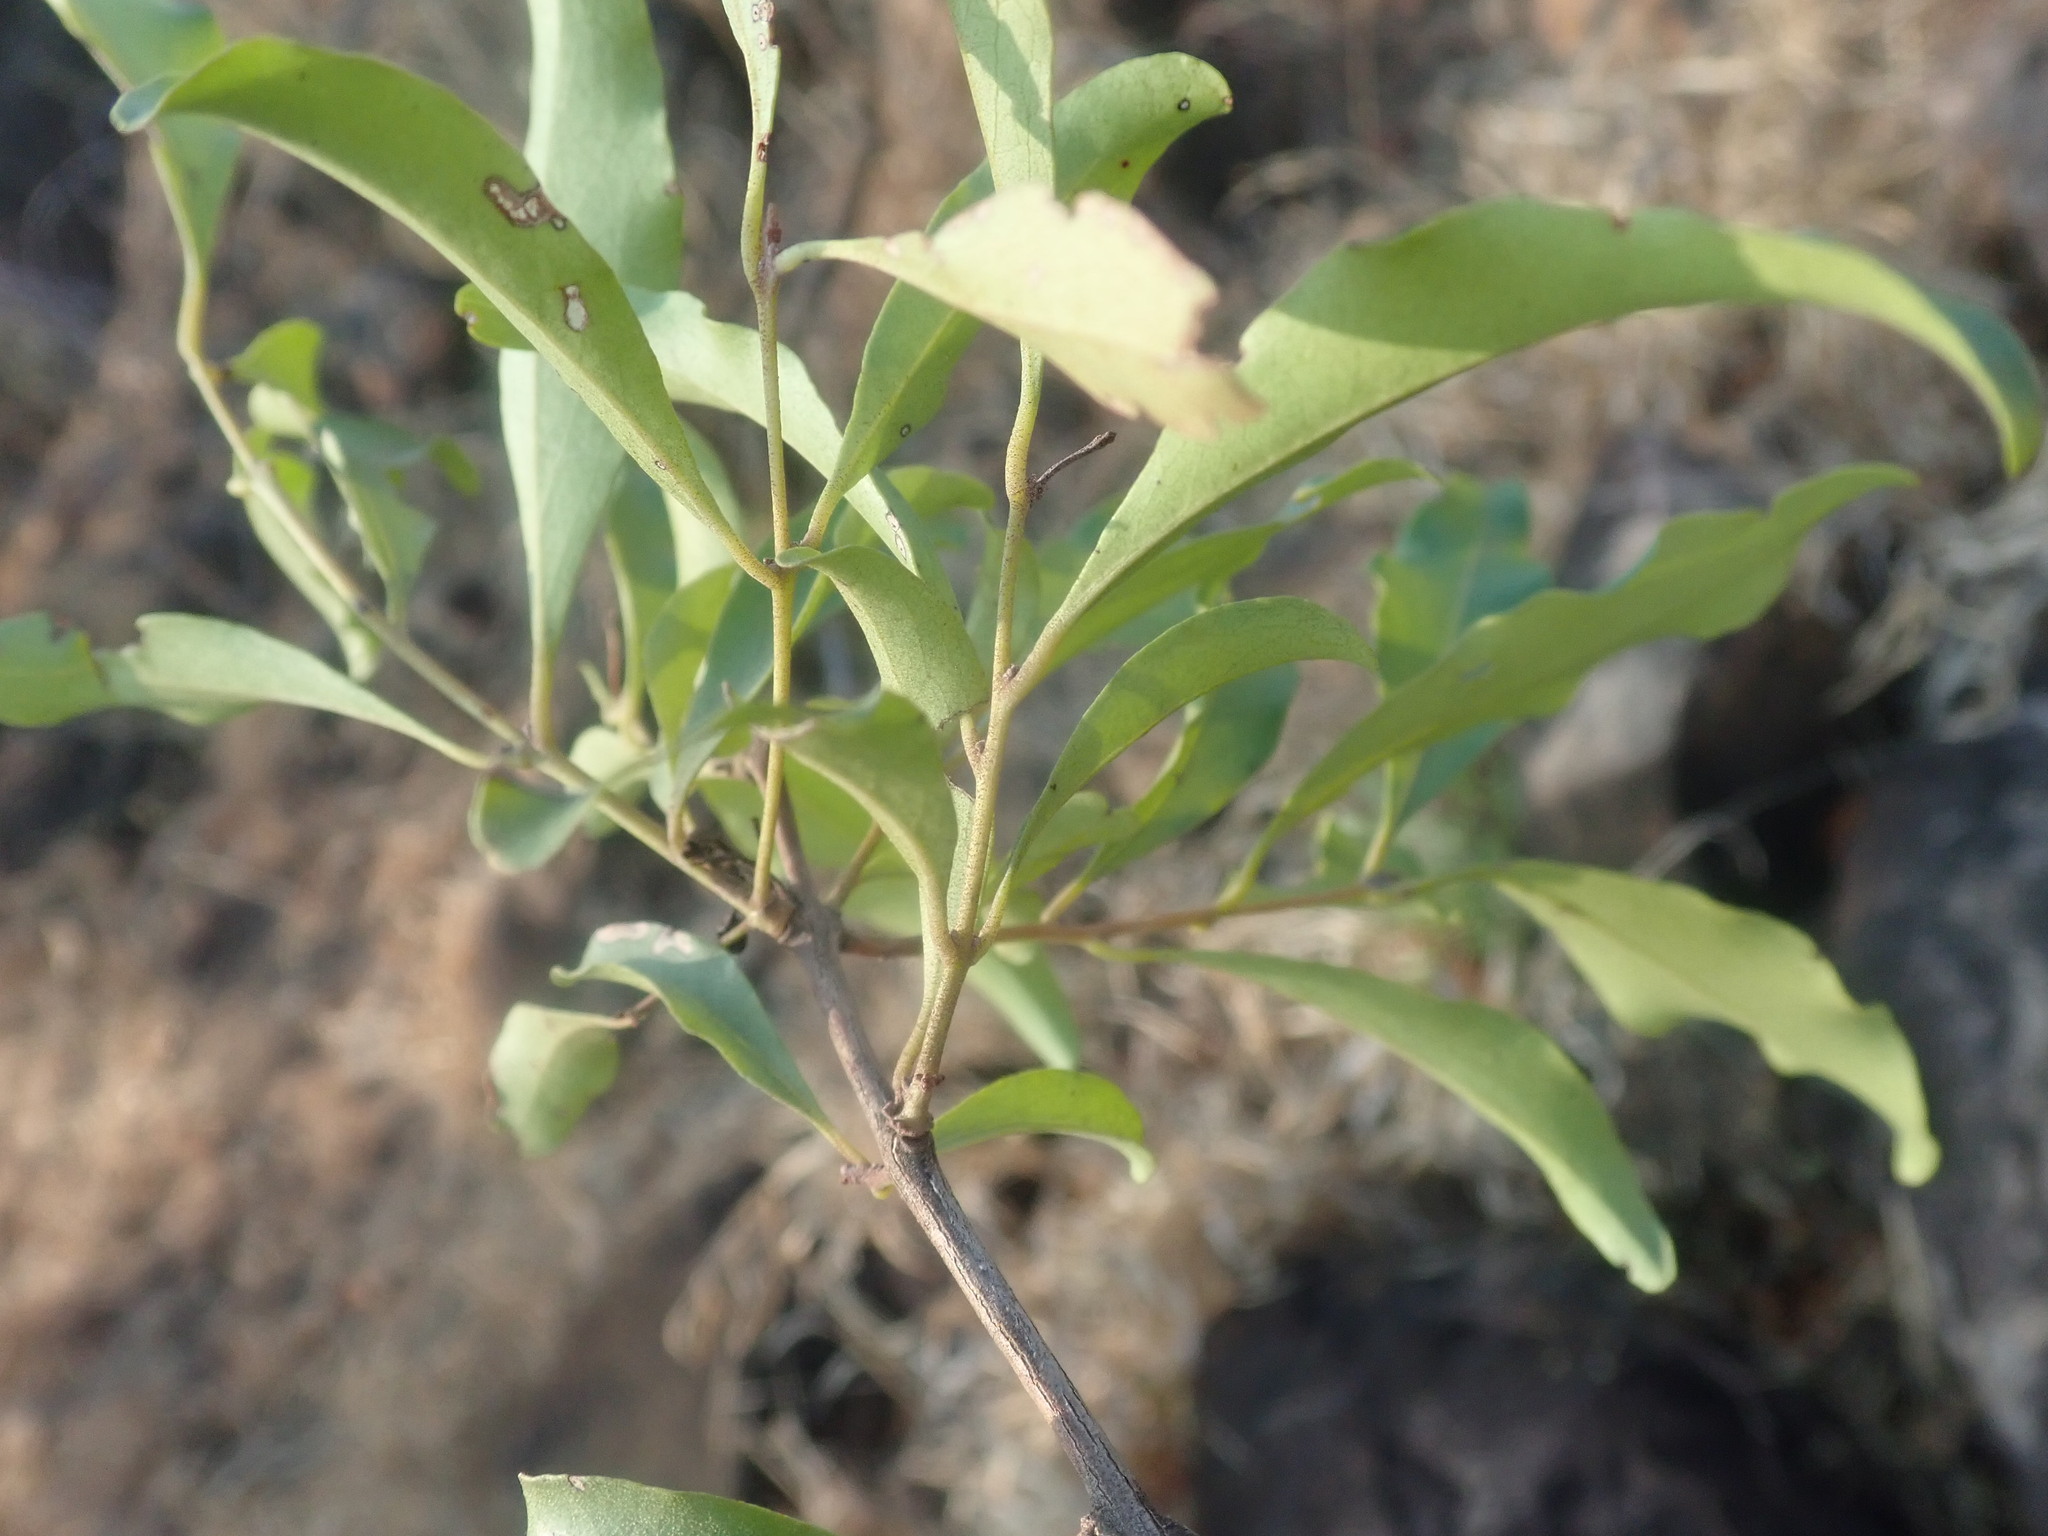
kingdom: Plantae
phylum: Tracheophyta
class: Magnoliopsida
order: Ericales
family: Ebenaceae
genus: Euclea
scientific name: Euclea divinorum
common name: Diamond-leaved euclea
